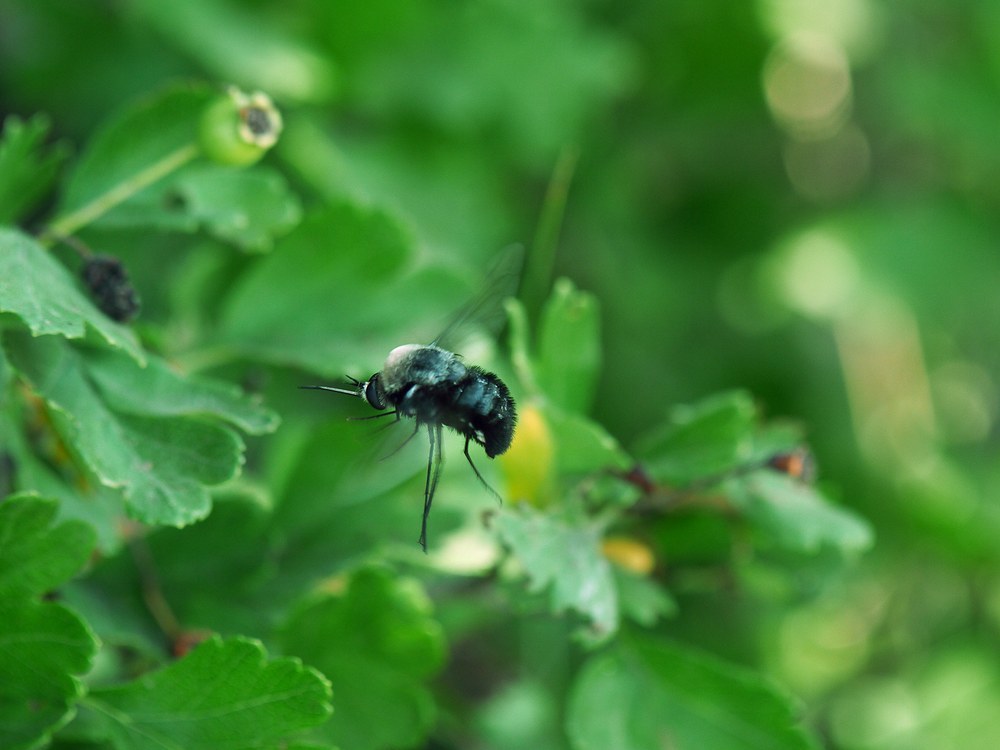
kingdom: Animalia
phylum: Arthropoda
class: Insecta
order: Diptera
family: Bombyliidae
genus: Bombomyia
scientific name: Bombomyia vertebralis
